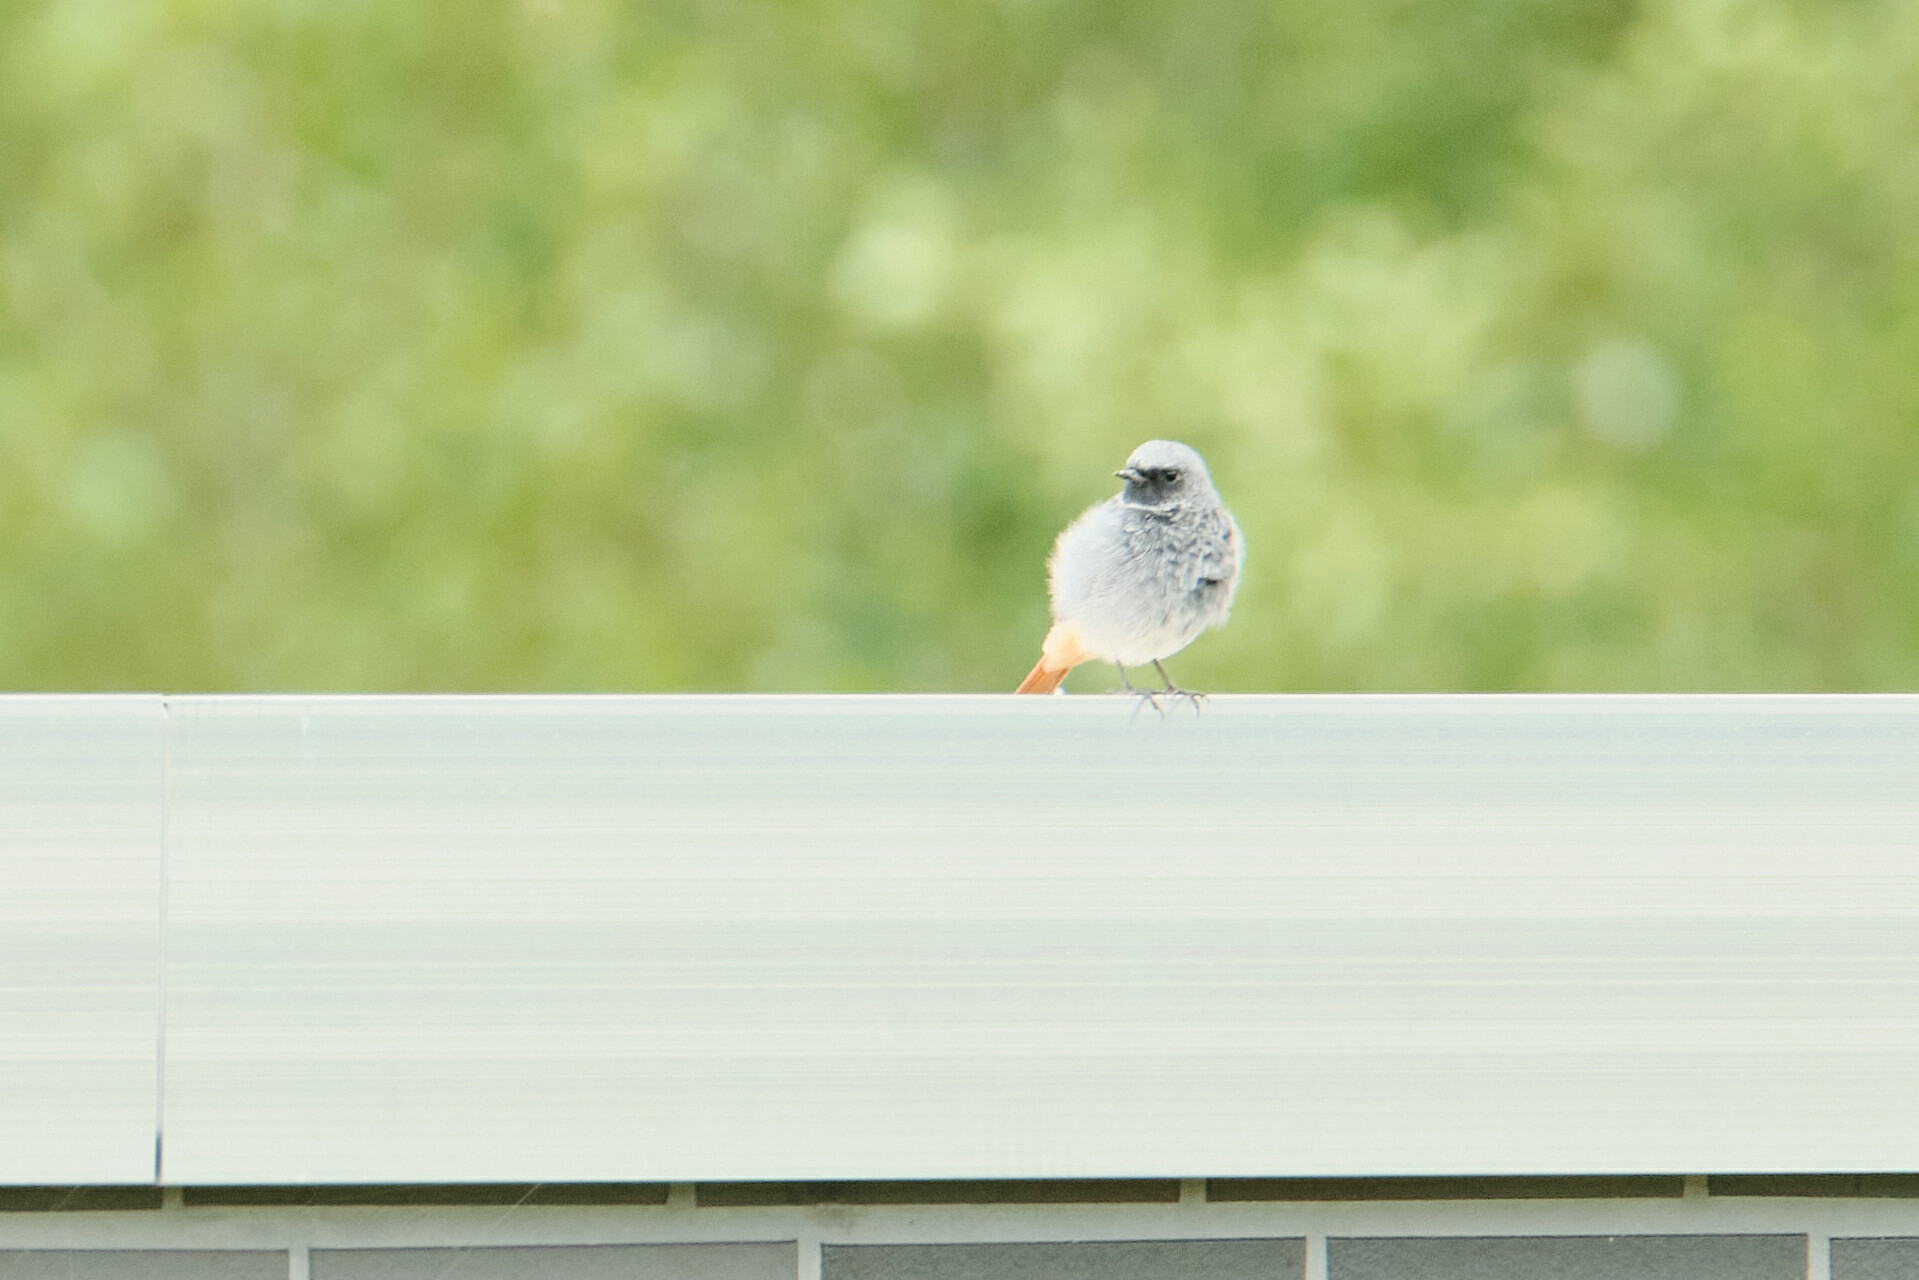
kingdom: Animalia
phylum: Chordata
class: Aves
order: Passeriformes
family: Muscicapidae
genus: Phoenicurus
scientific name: Phoenicurus ochruros
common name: Black redstart
